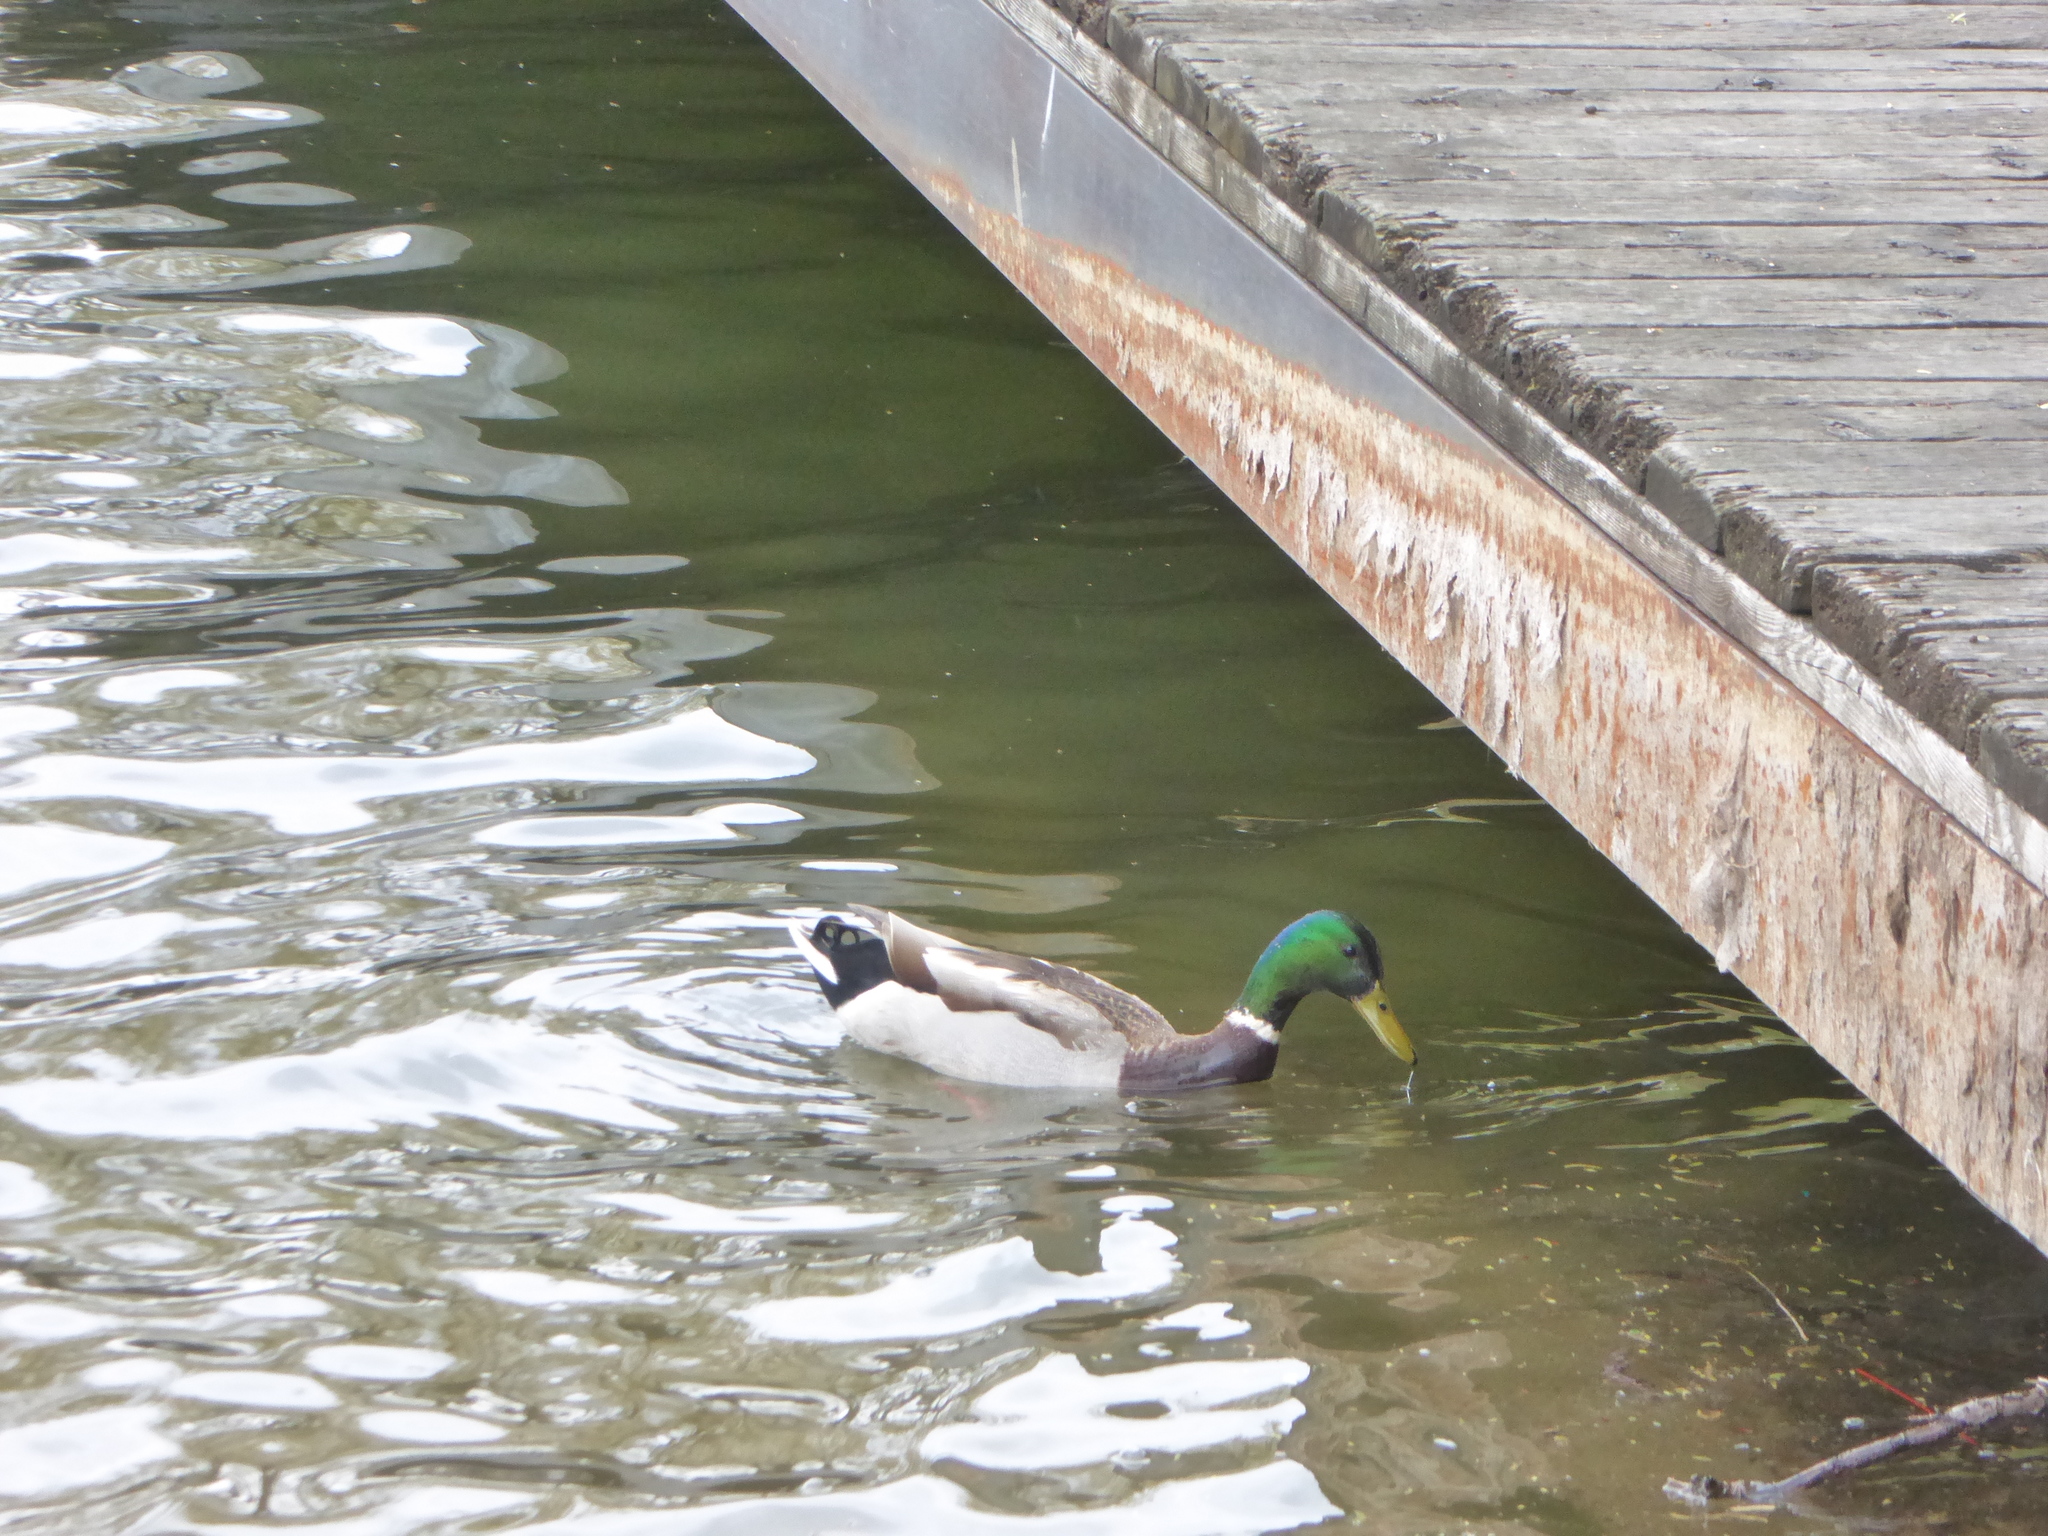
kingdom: Animalia
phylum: Chordata
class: Aves
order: Anseriformes
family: Anatidae
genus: Anas
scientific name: Anas platyrhynchos
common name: Mallard
